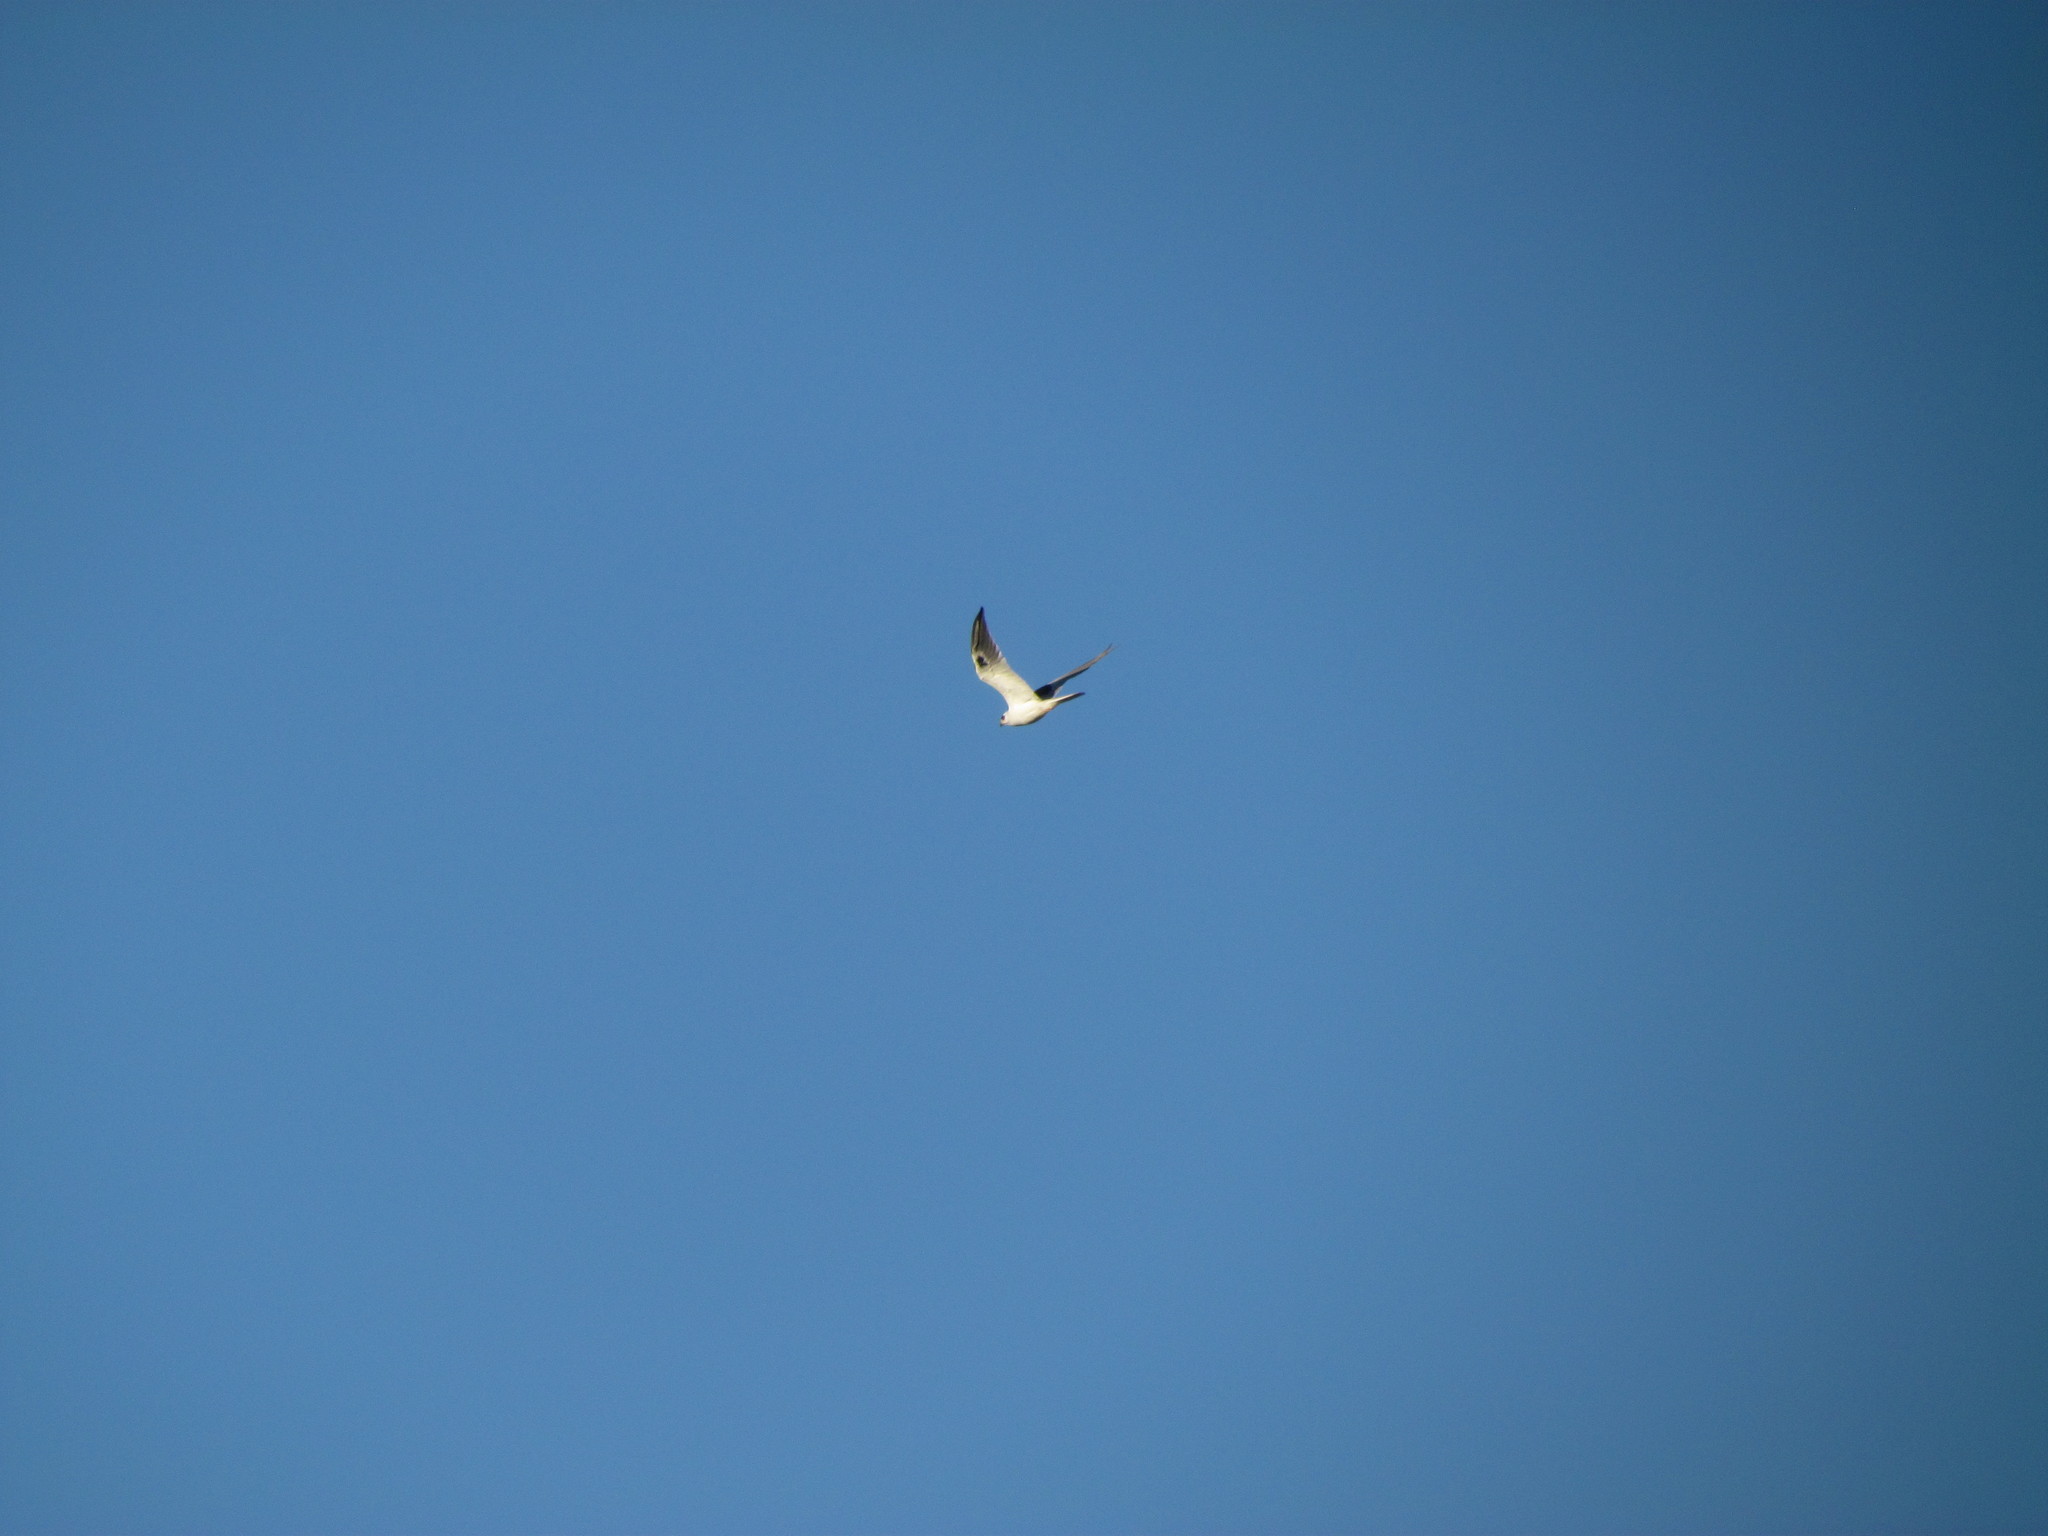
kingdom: Animalia
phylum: Chordata
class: Aves
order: Accipitriformes
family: Accipitridae
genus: Elanus
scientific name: Elanus leucurus
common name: White-tailed kite
